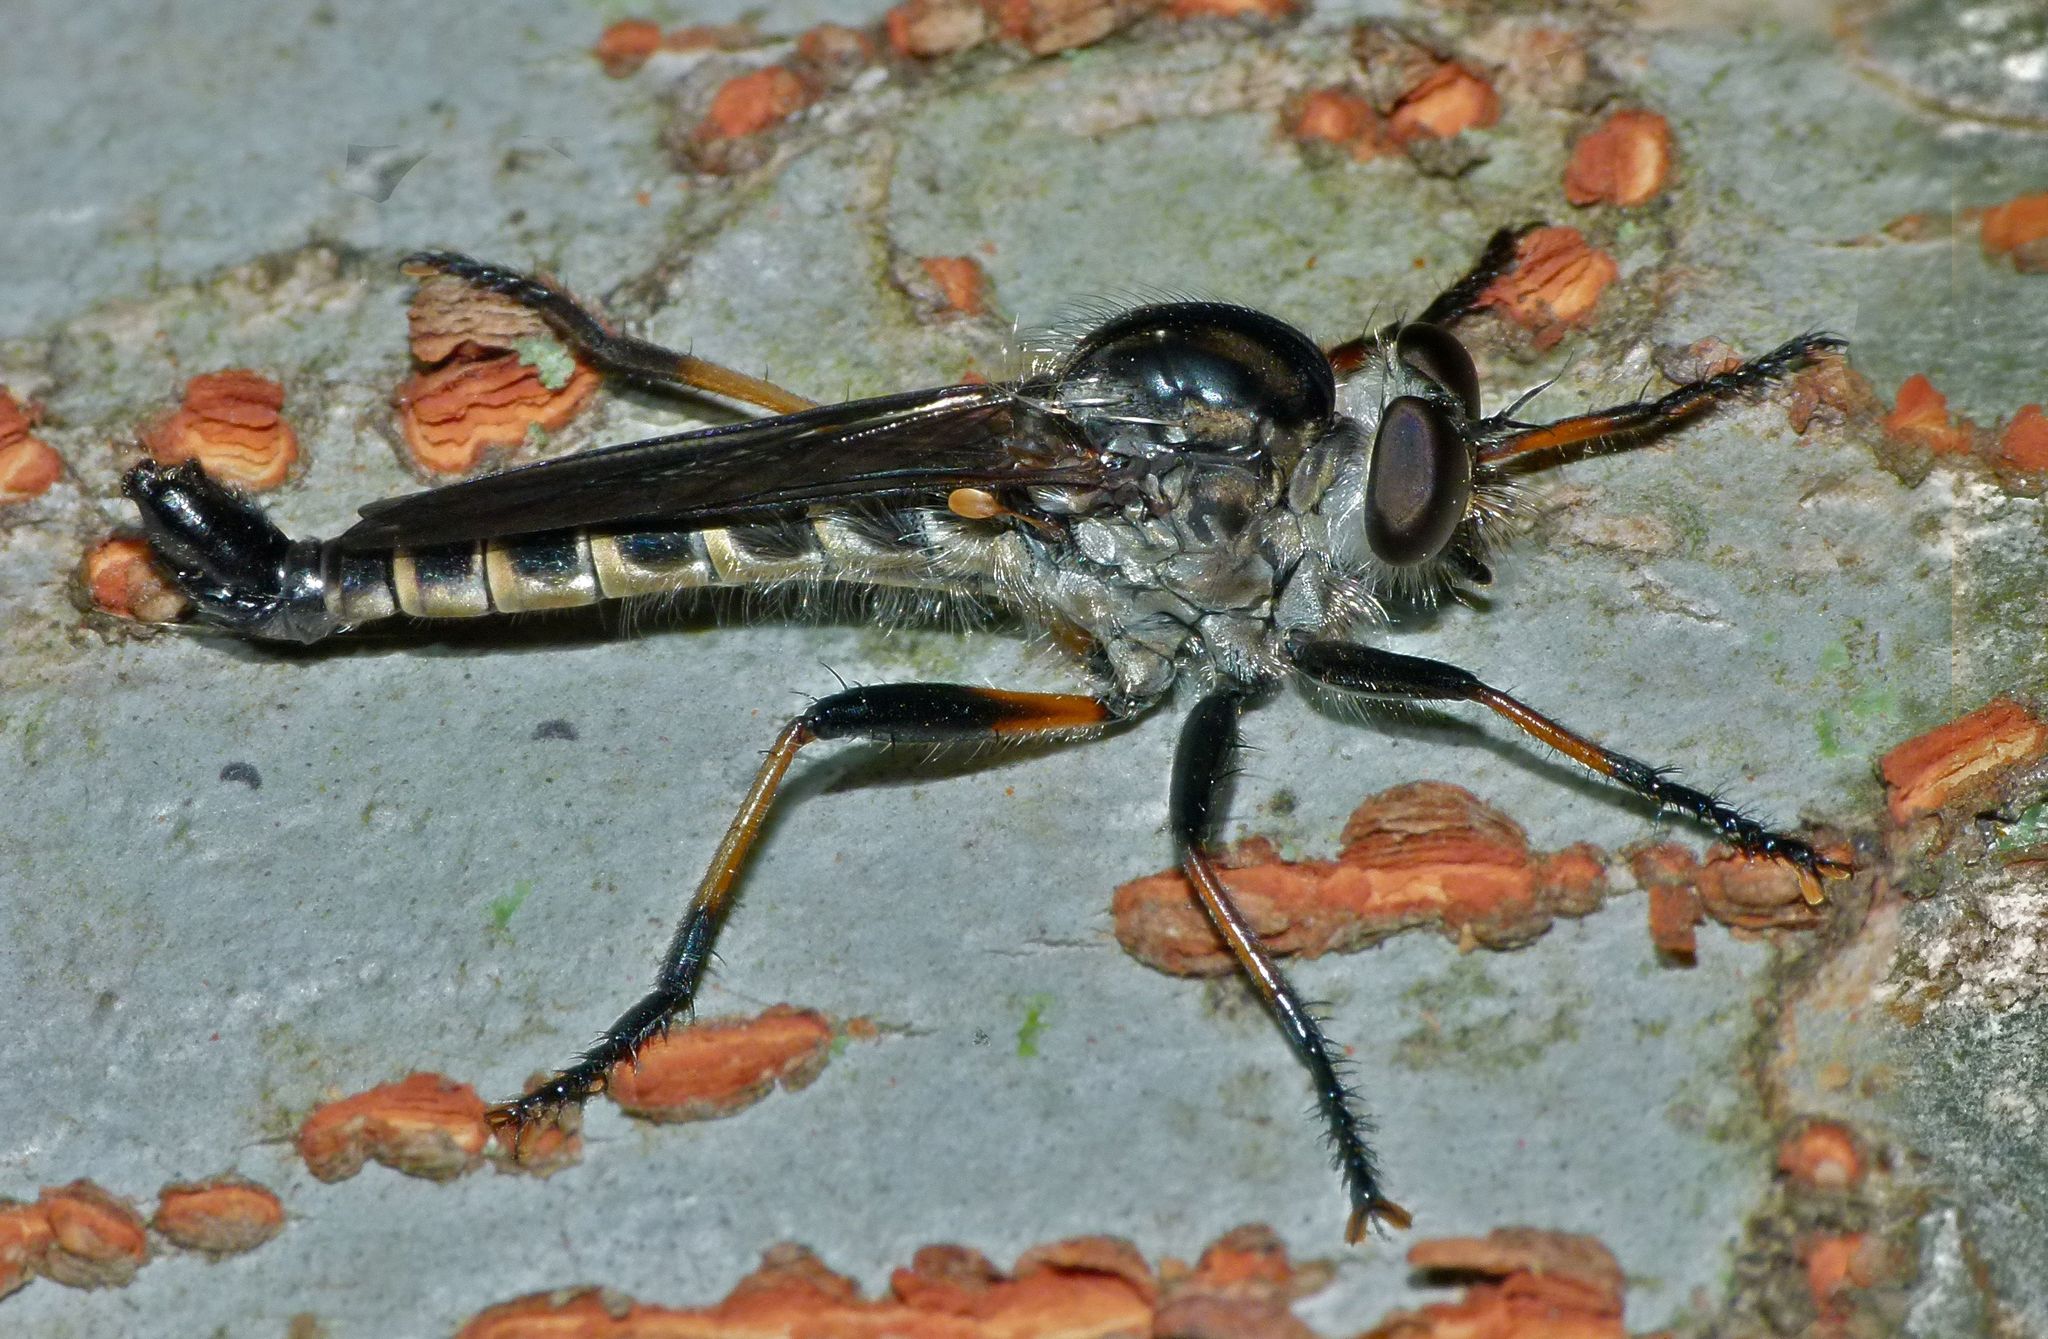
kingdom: Animalia
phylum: Arthropoda
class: Insecta
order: Diptera
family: Asilidae
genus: Cerdistus
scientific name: Cerdistus fuscipennis
